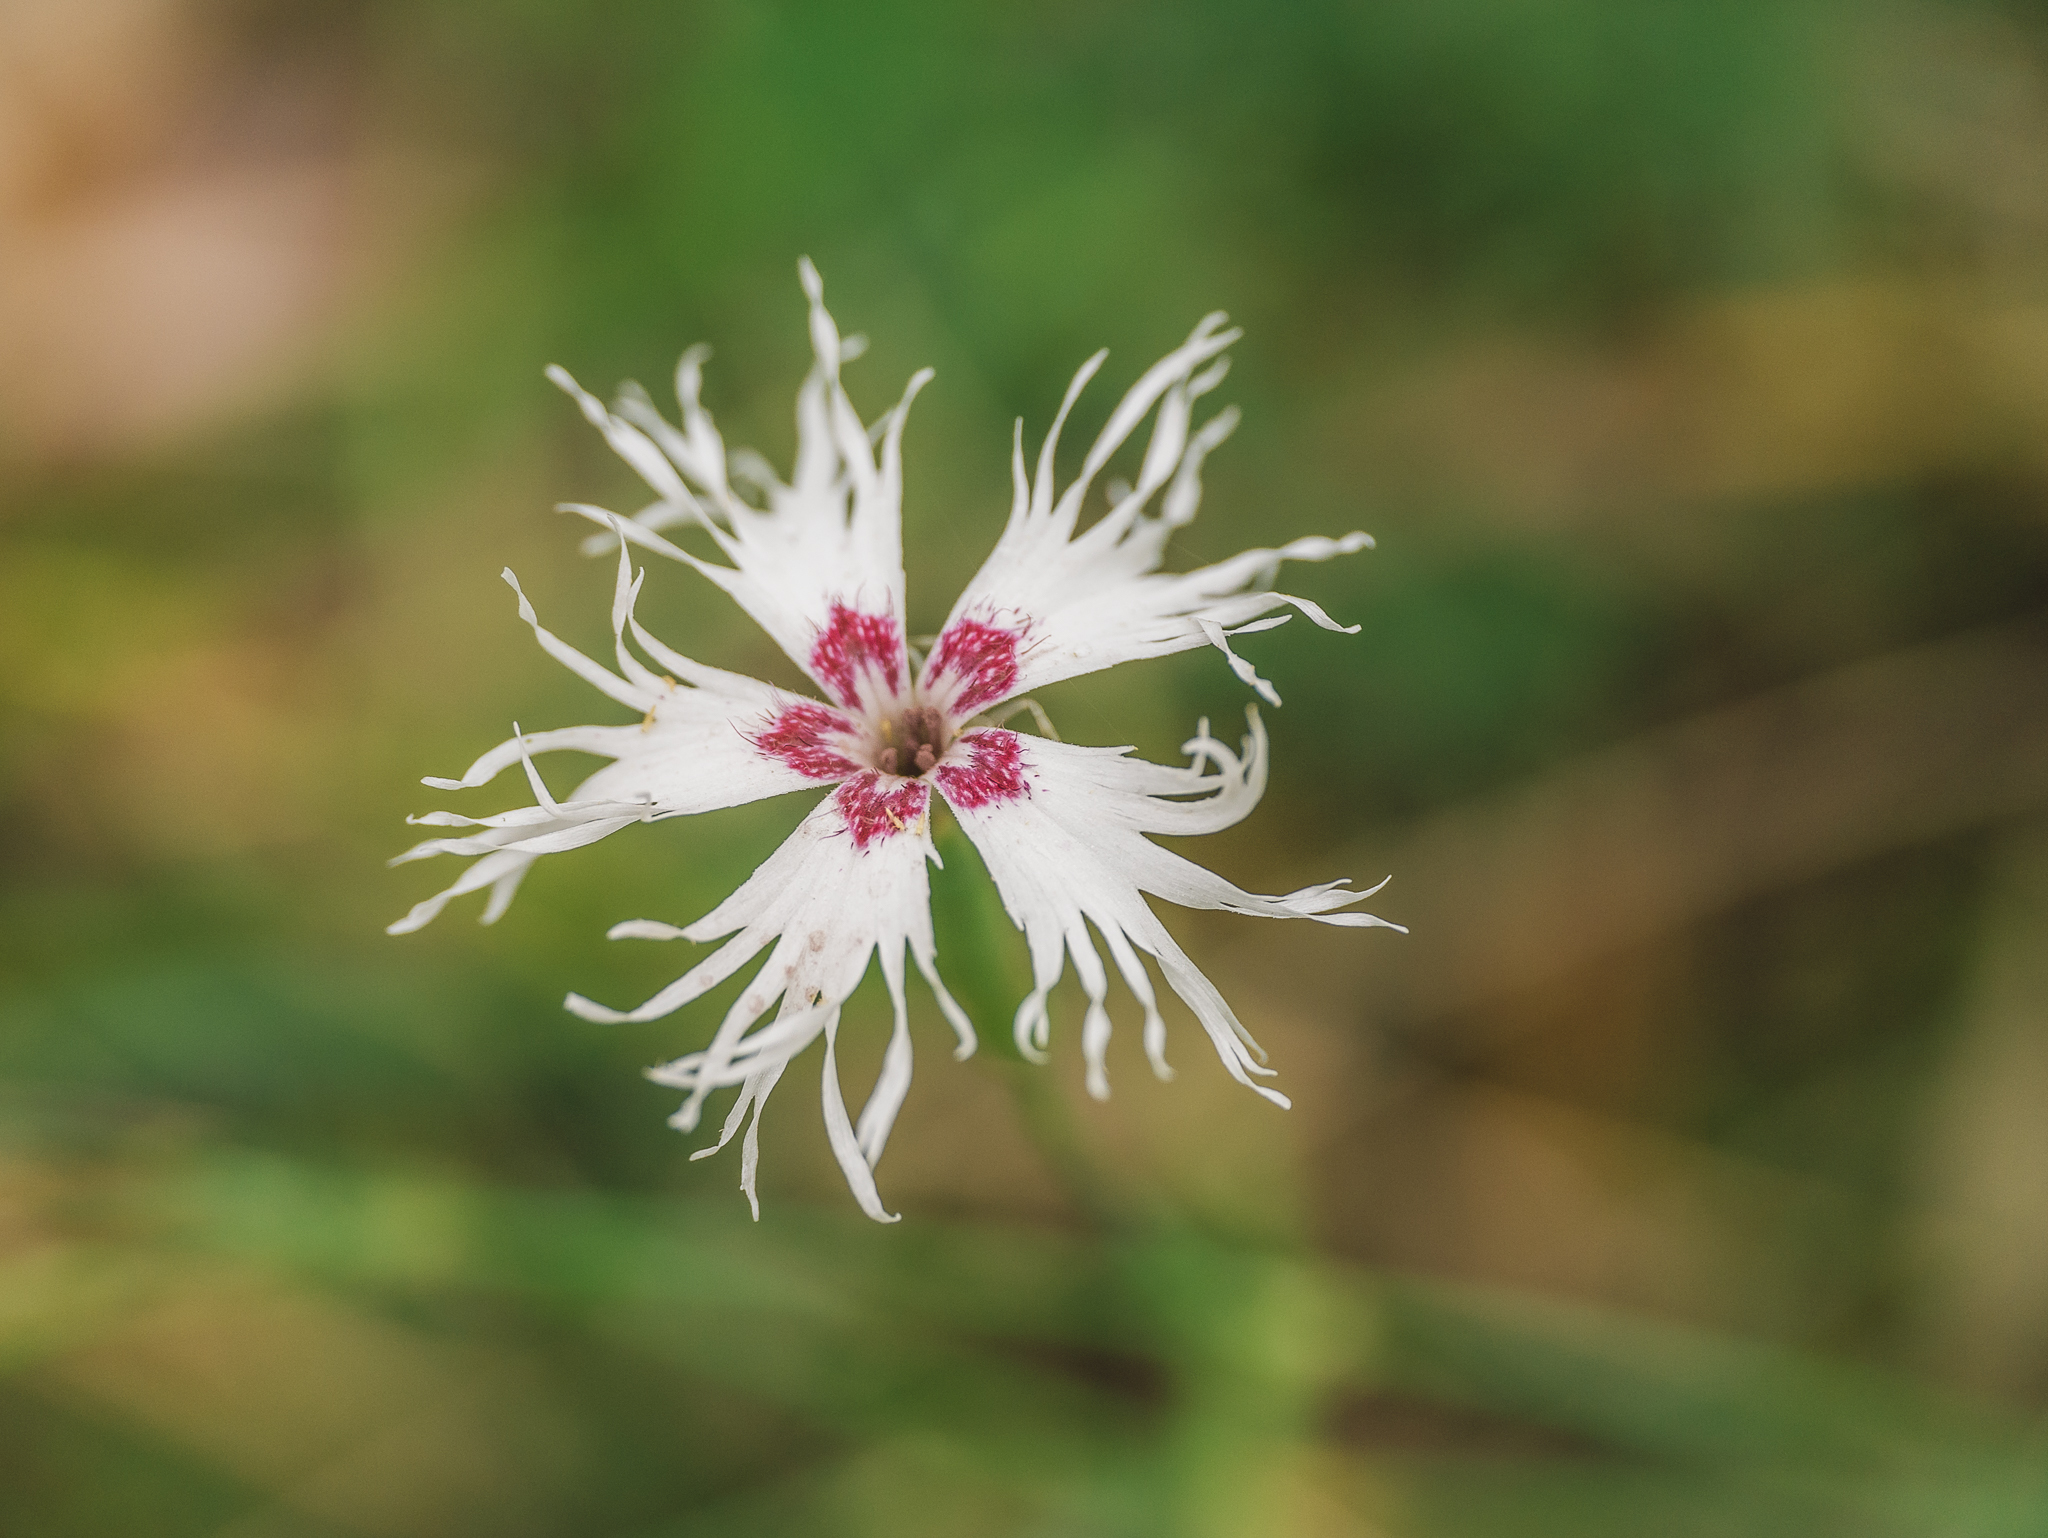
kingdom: Plantae
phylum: Tracheophyta
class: Magnoliopsida
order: Caryophyllales
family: Caryophyllaceae
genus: Dianthus
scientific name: Dianthus superbus
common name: Fringed pink
